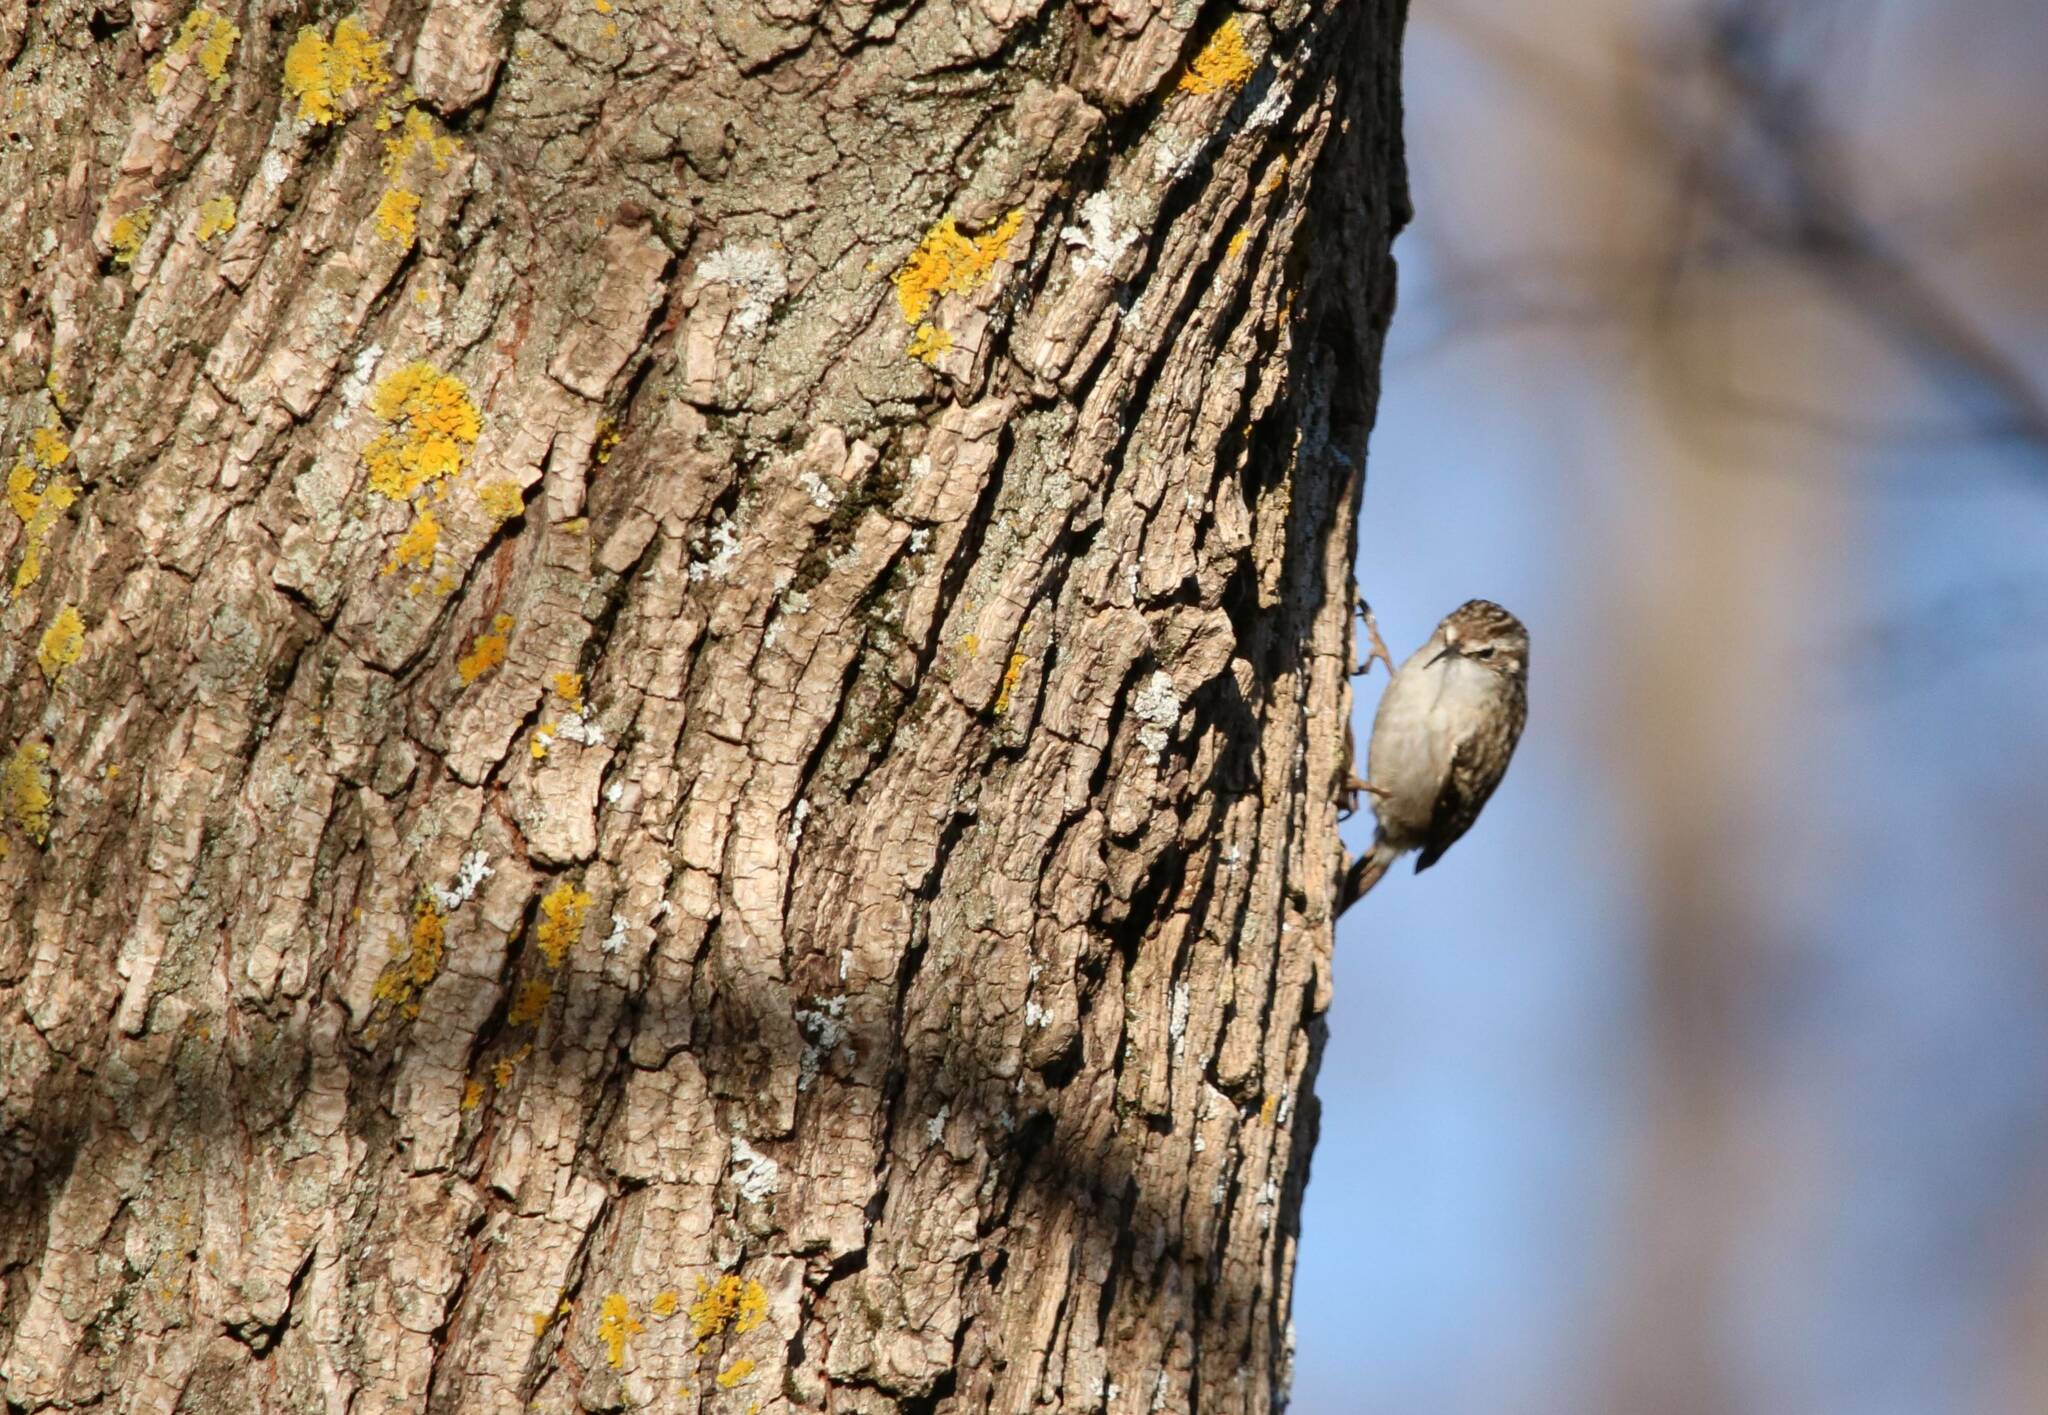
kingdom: Animalia
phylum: Chordata
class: Aves
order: Passeriformes
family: Certhiidae
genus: Certhia
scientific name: Certhia brachydactyla
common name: Short-toed treecreeper
